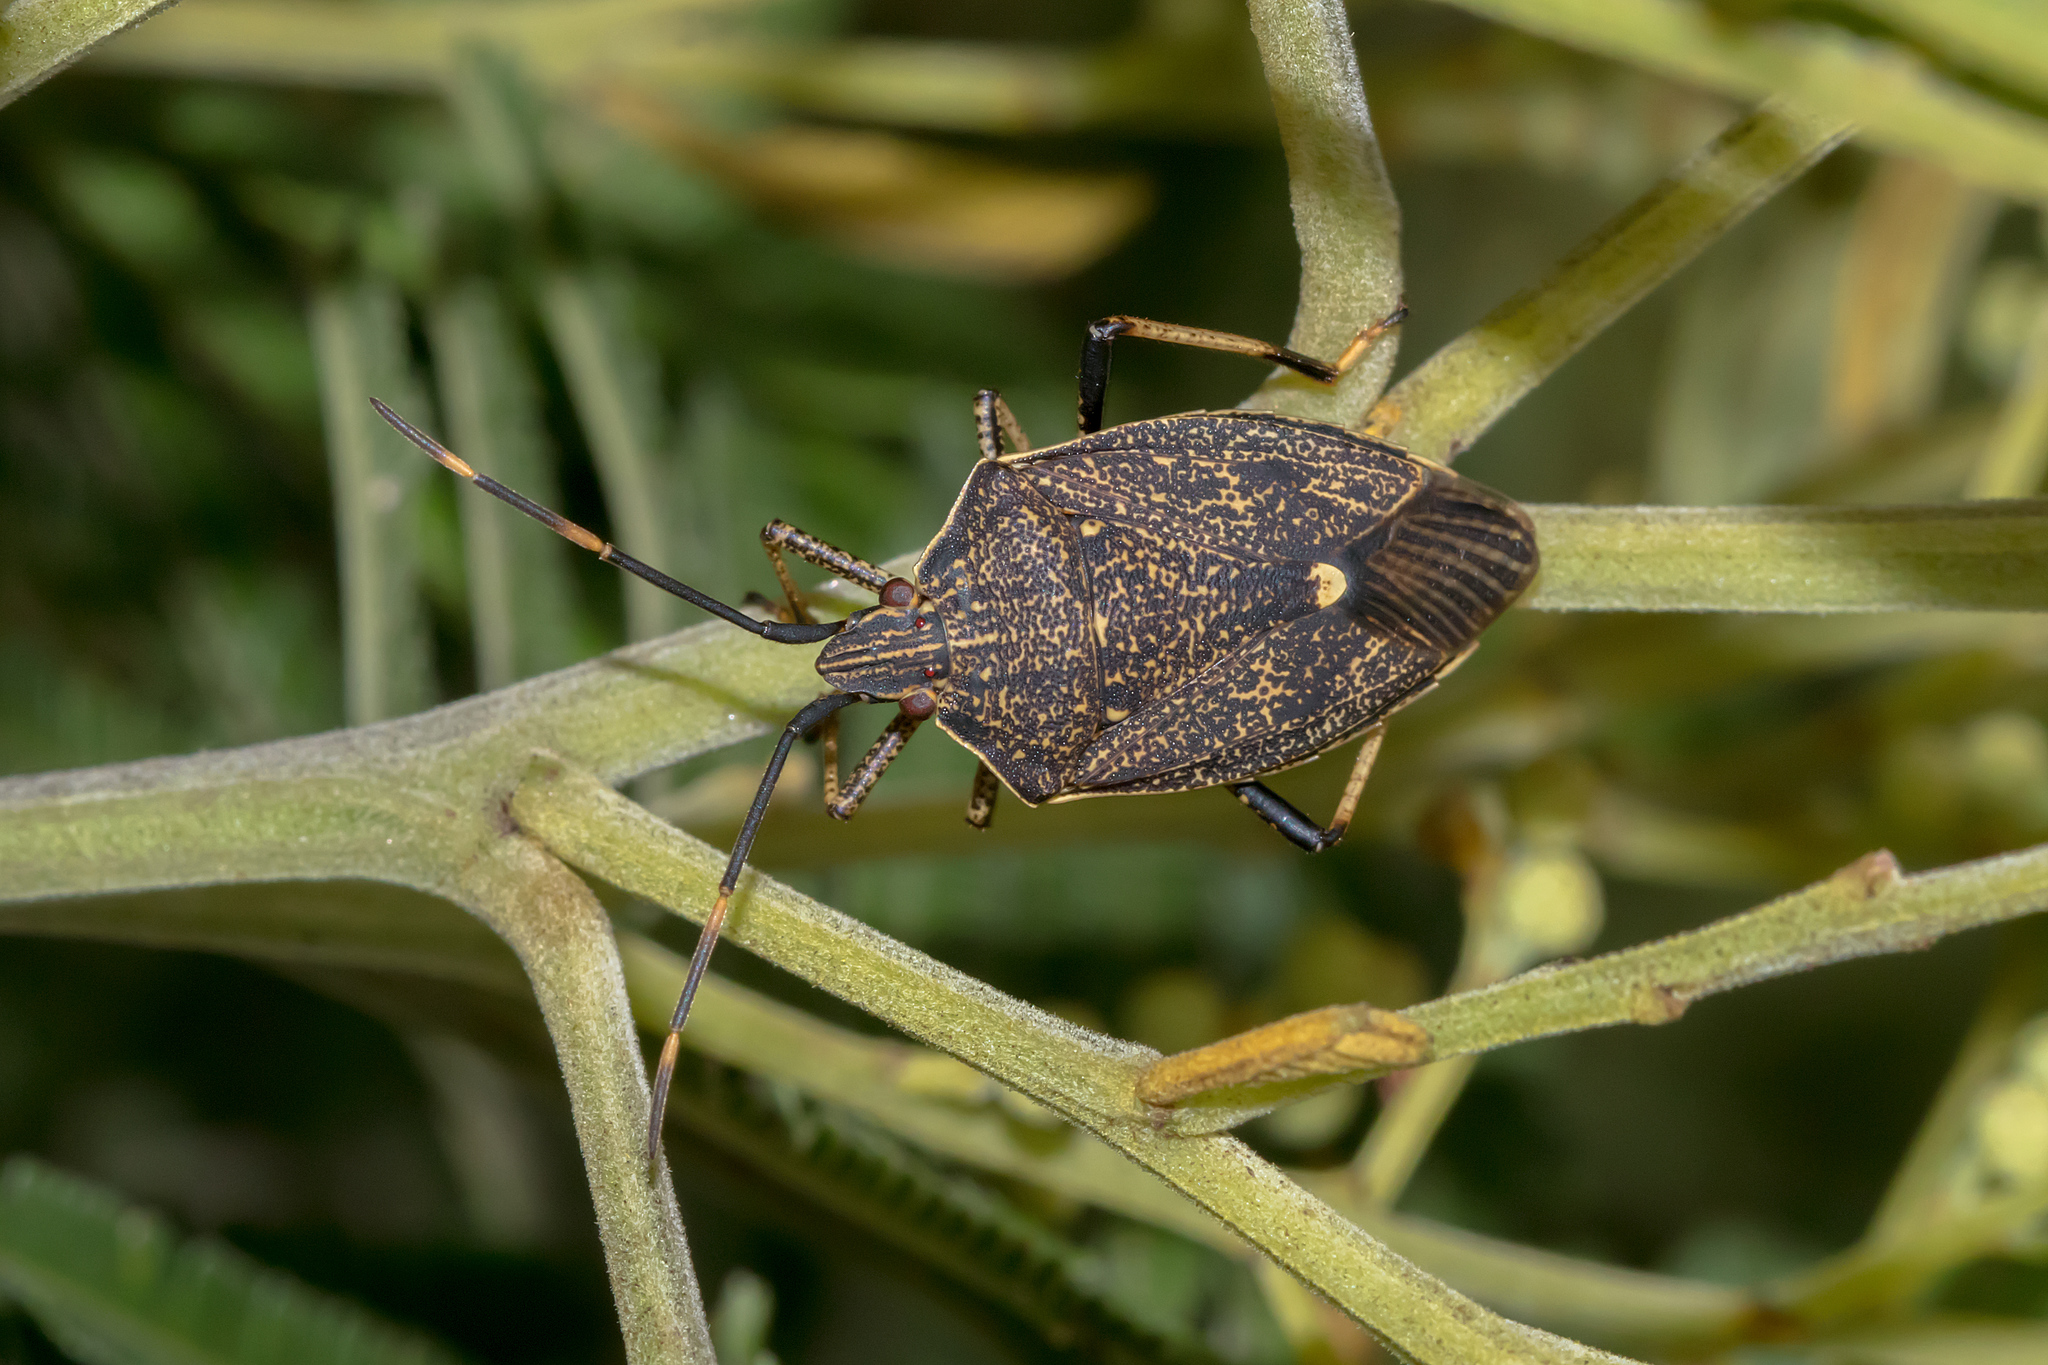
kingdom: Animalia
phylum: Arthropoda
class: Insecta
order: Hemiptera
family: Pentatomidae
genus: Poecilometis
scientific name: Poecilometis
